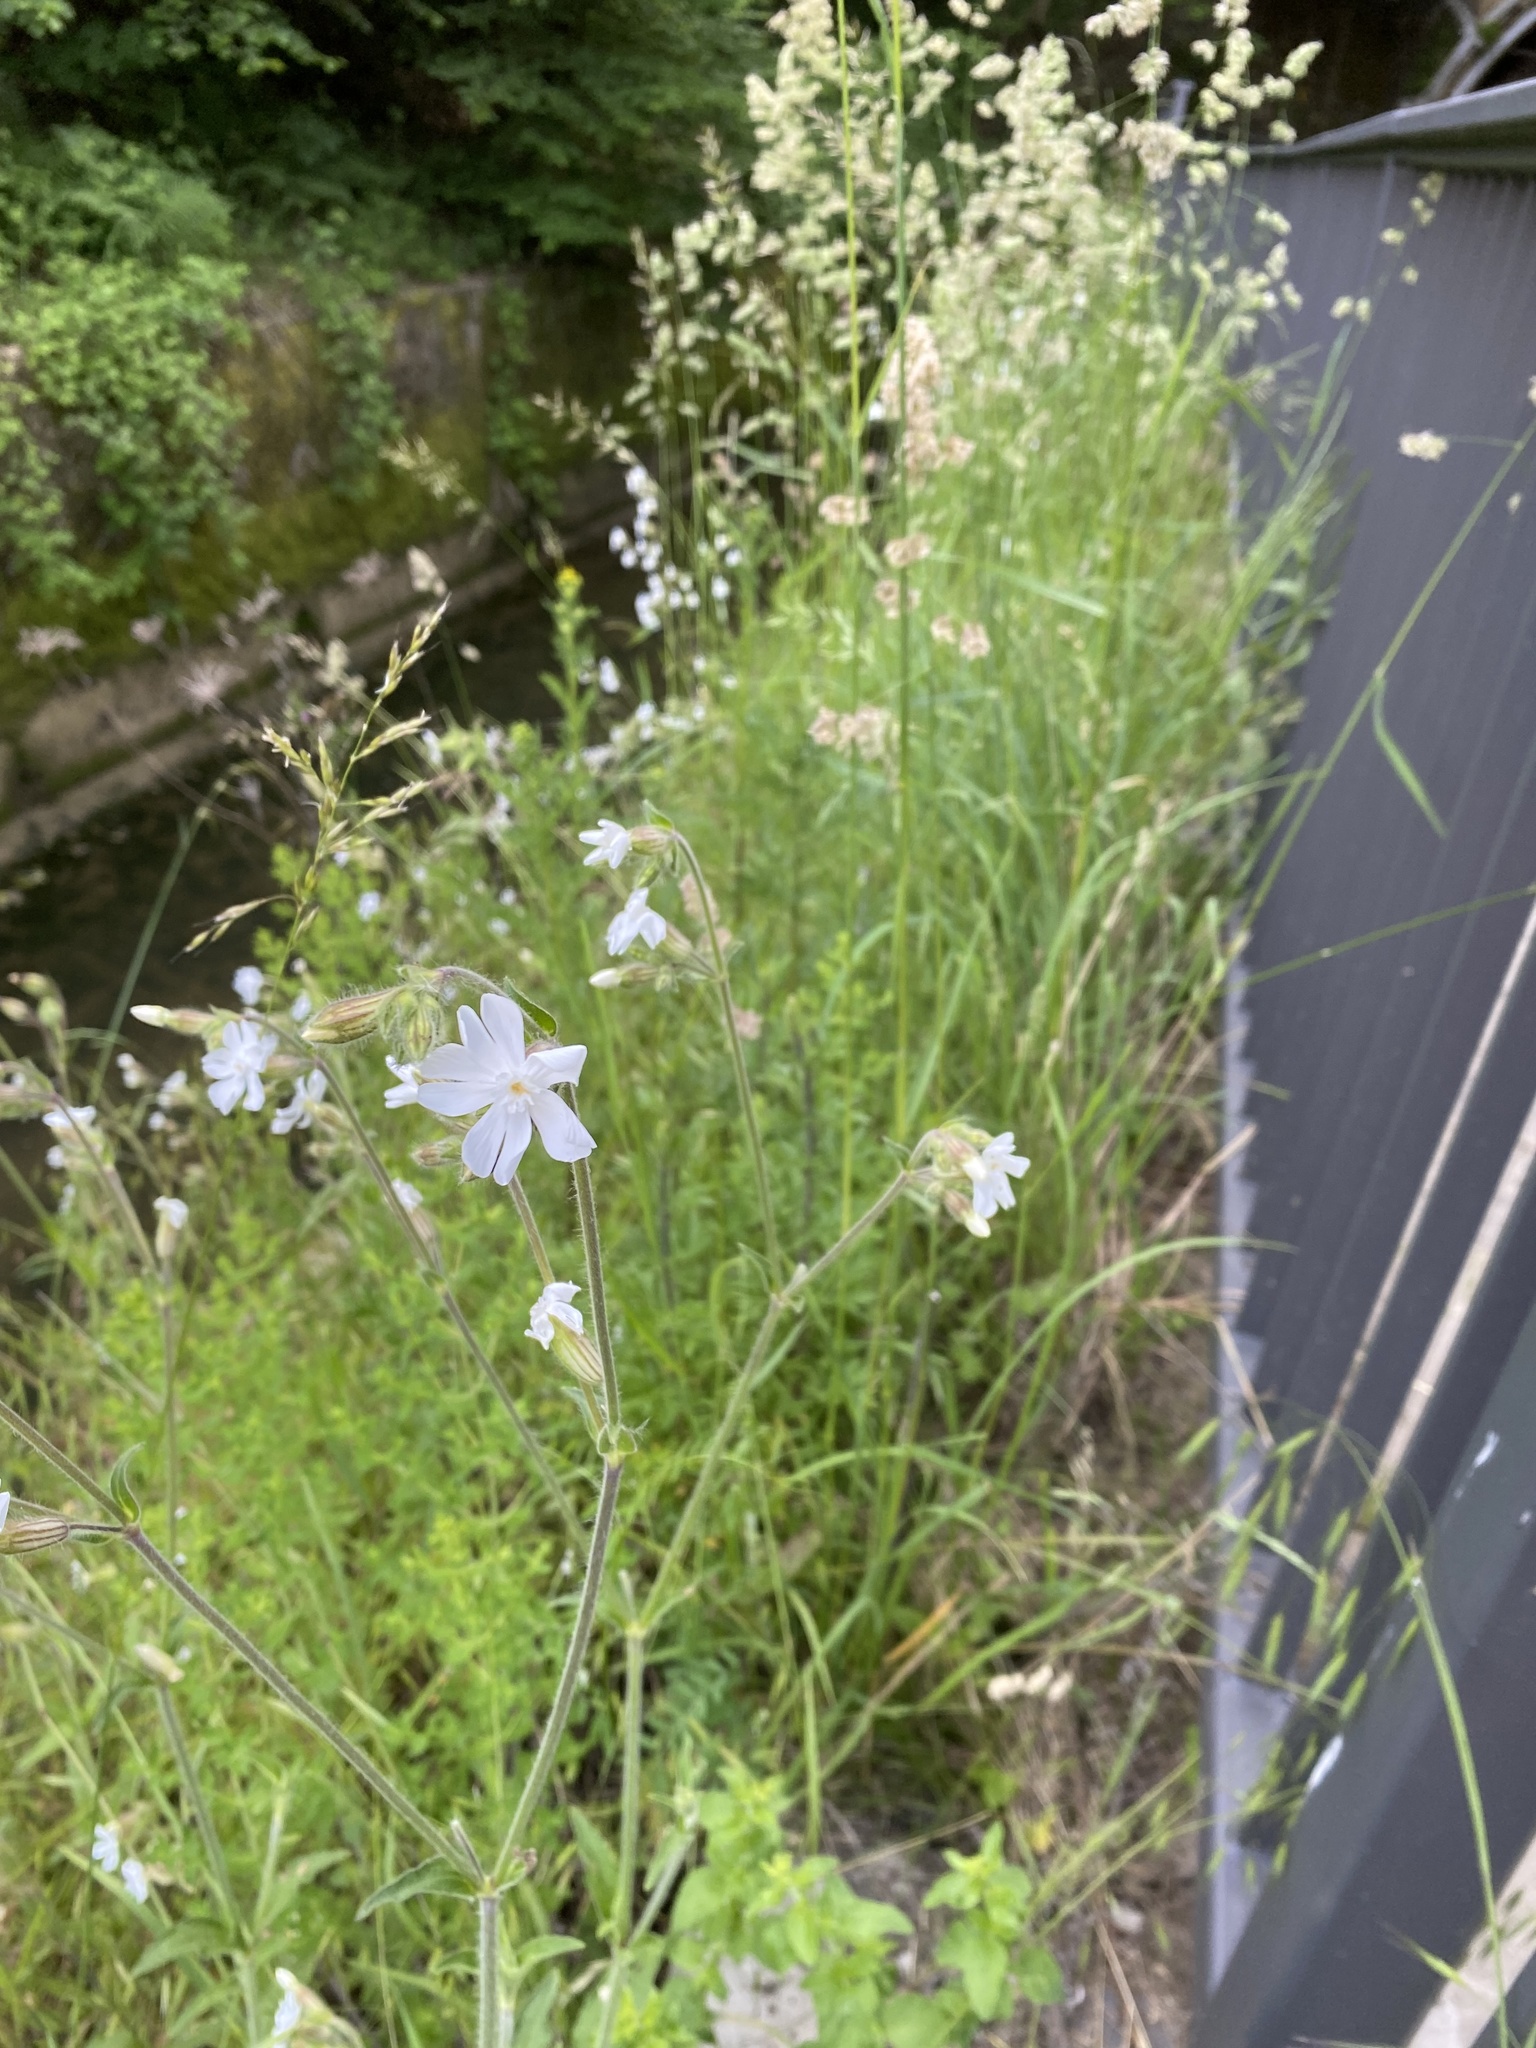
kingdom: Plantae
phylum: Tracheophyta
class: Magnoliopsida
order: Caryophyllales
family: Caryophyllaceae
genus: Silene
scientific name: Silene latifolia
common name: White campion
